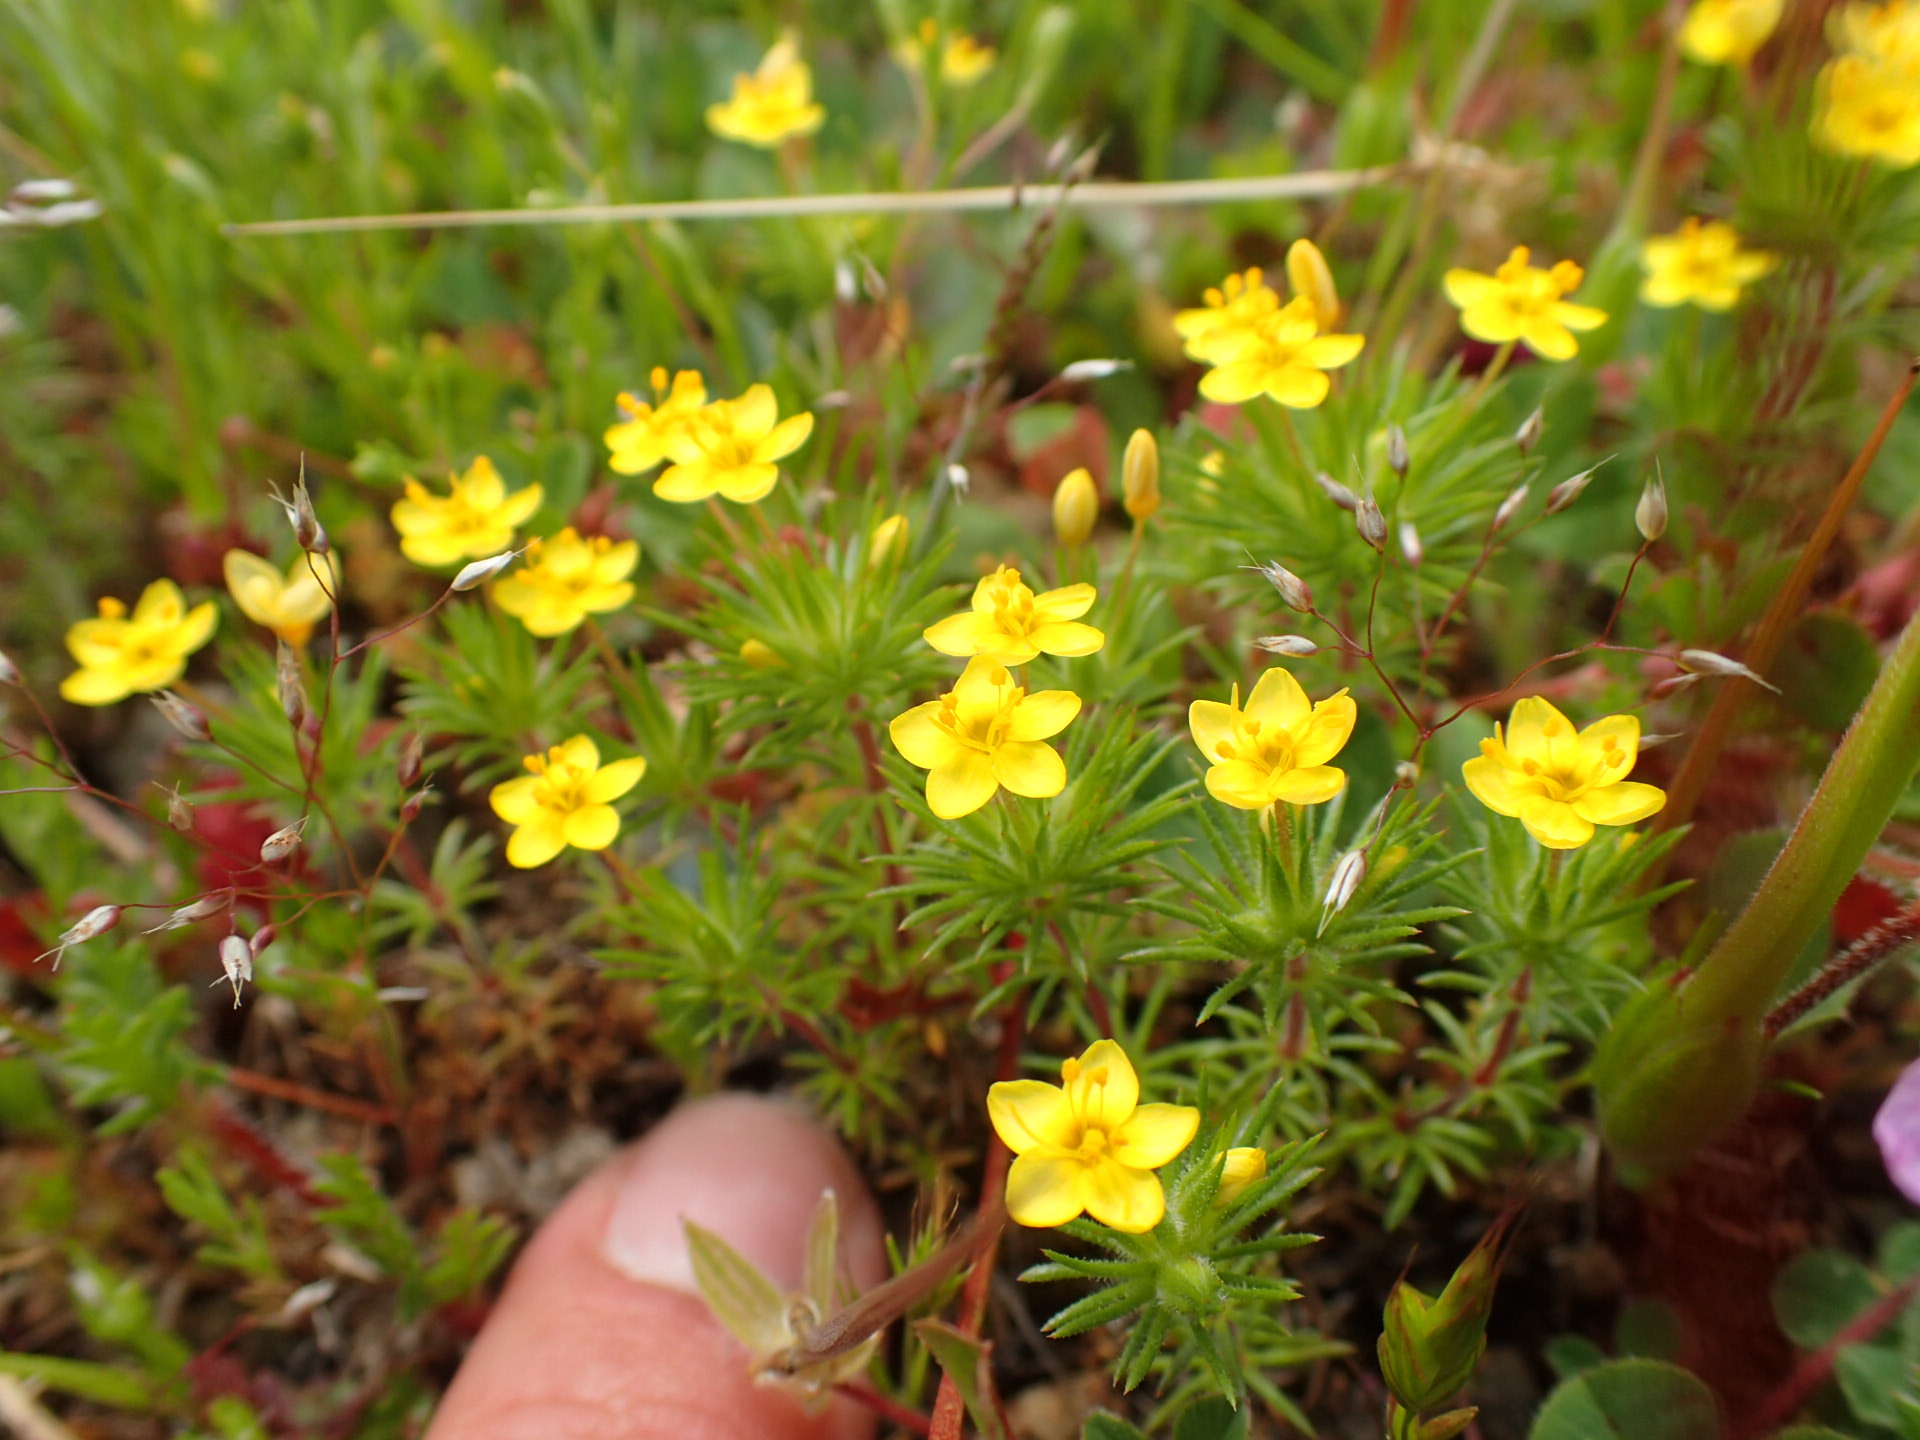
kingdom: Plantae
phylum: Tracheophyta
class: Magnoliopsida
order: Ericales
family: Polemoniaceae
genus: Leptosiphon
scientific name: Leptosiphon acicularis
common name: Bristly linanthus
